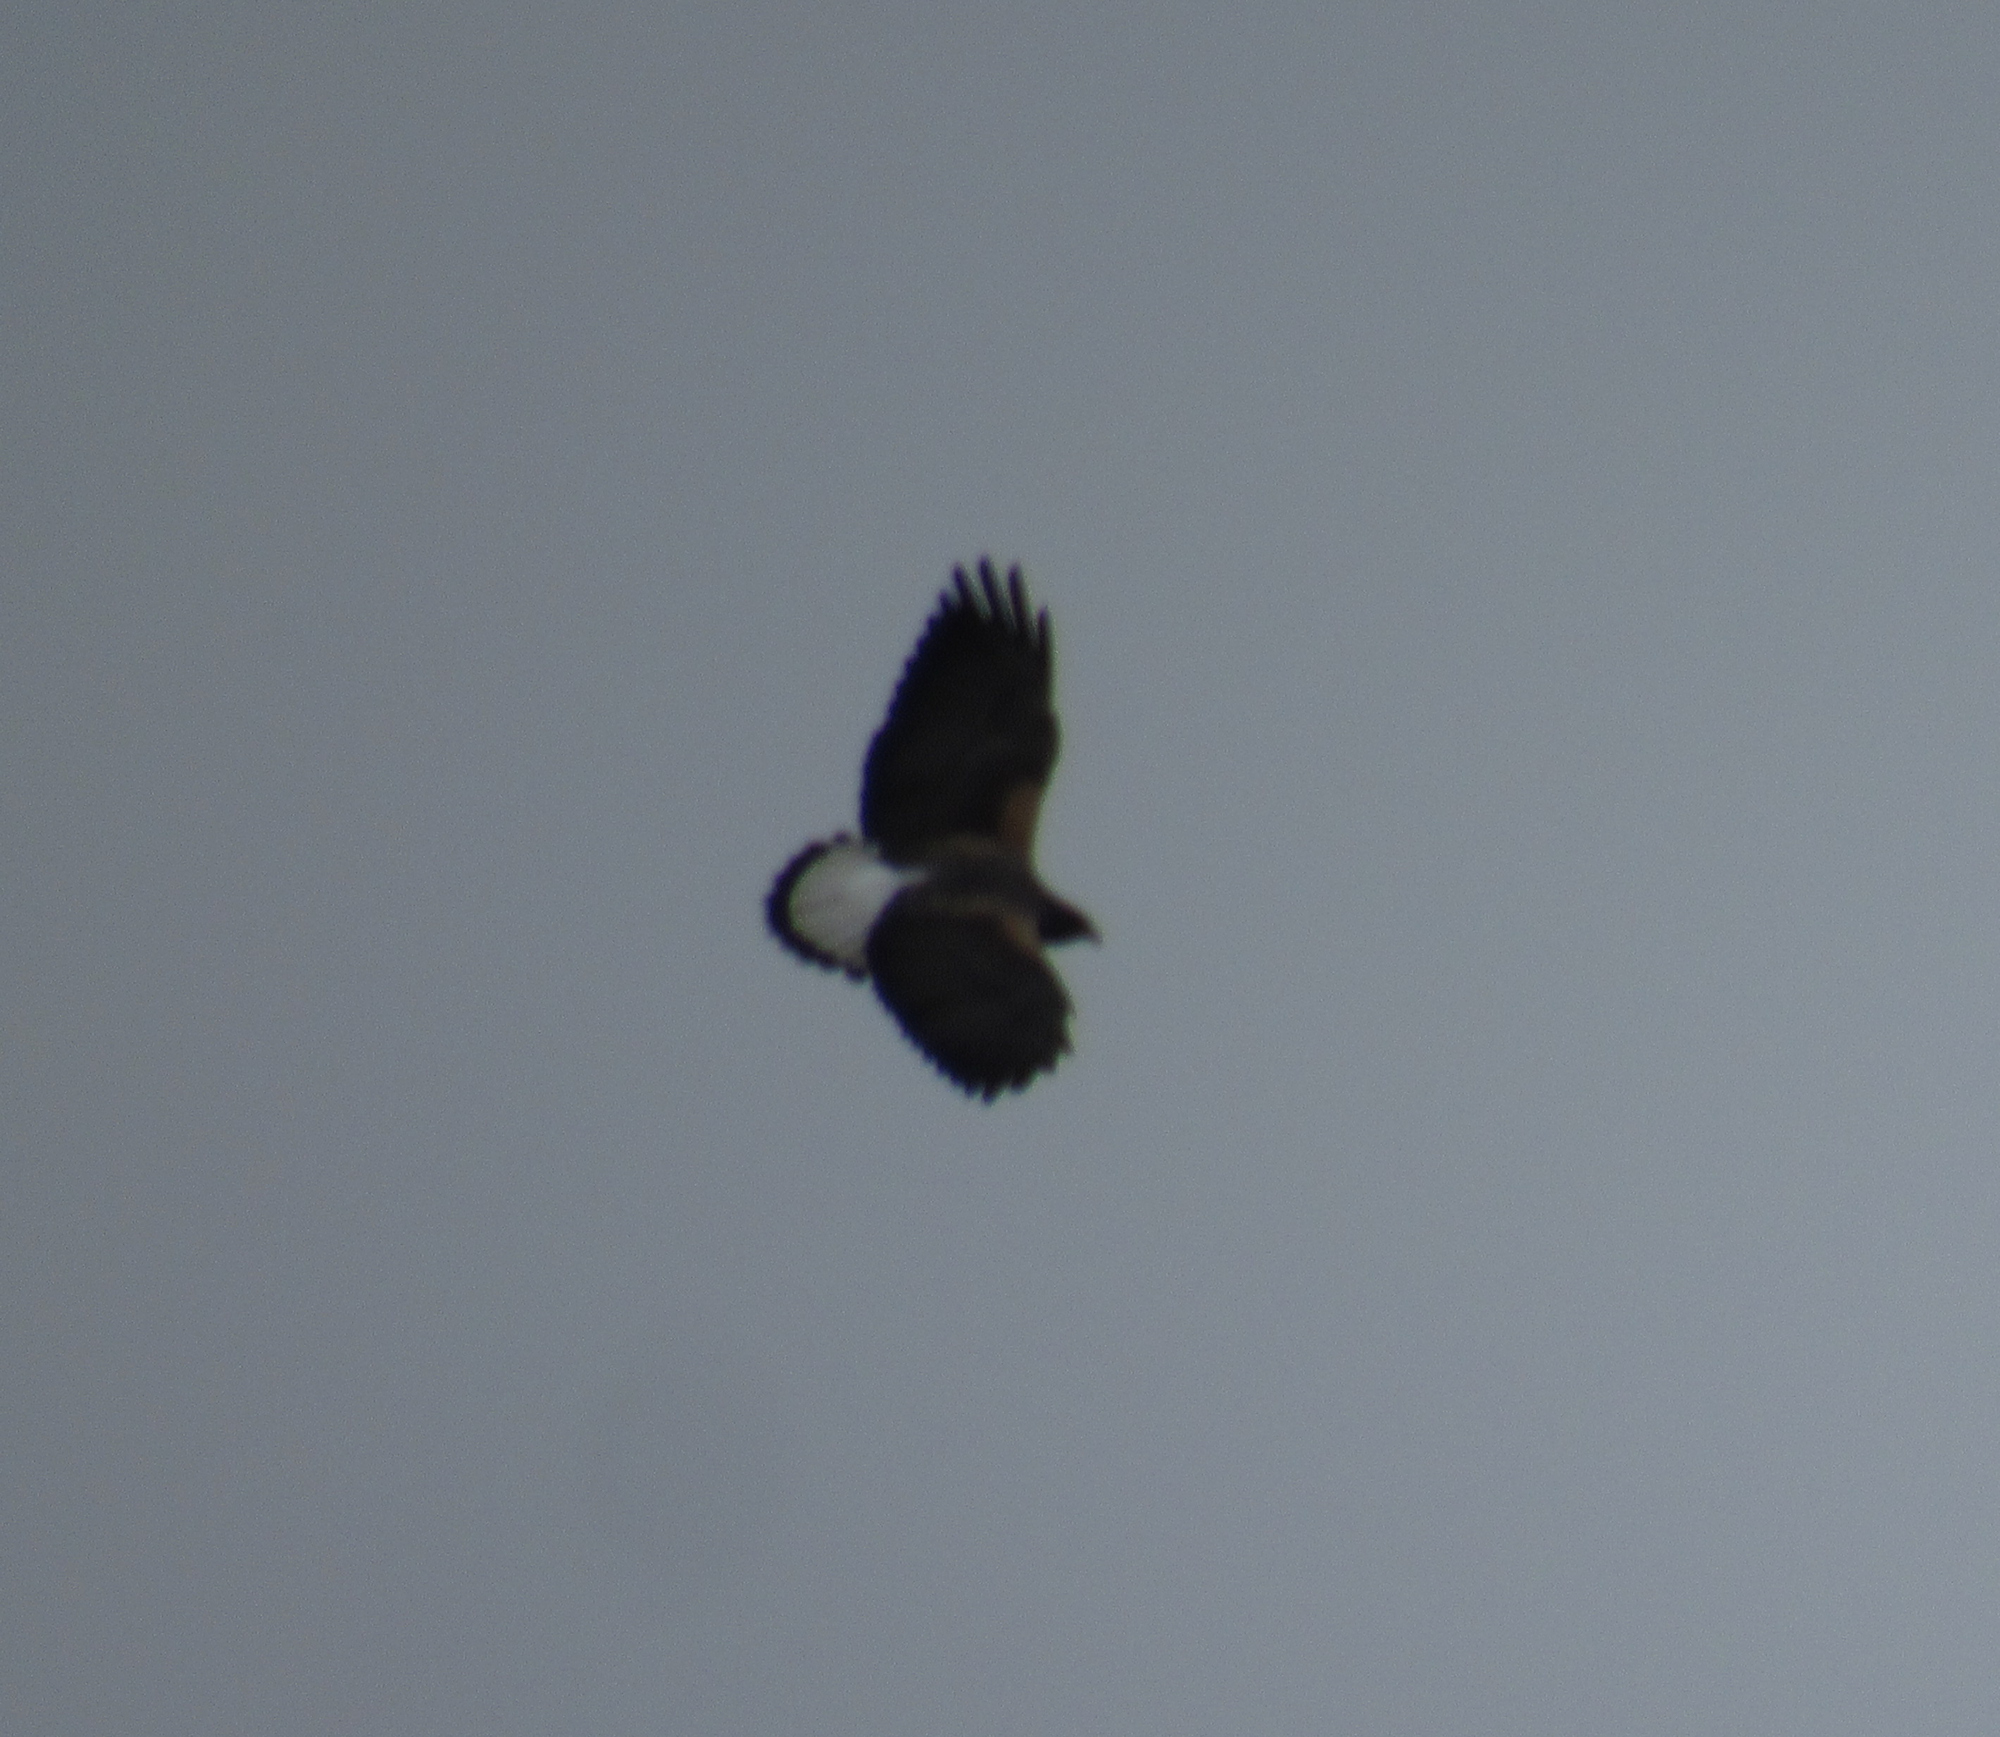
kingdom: Animalia
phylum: Chordata
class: Aves
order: Accipitriformes
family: Accipitridae
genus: Buteo
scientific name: Buteo albicaudatus
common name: White-tailed hawk
